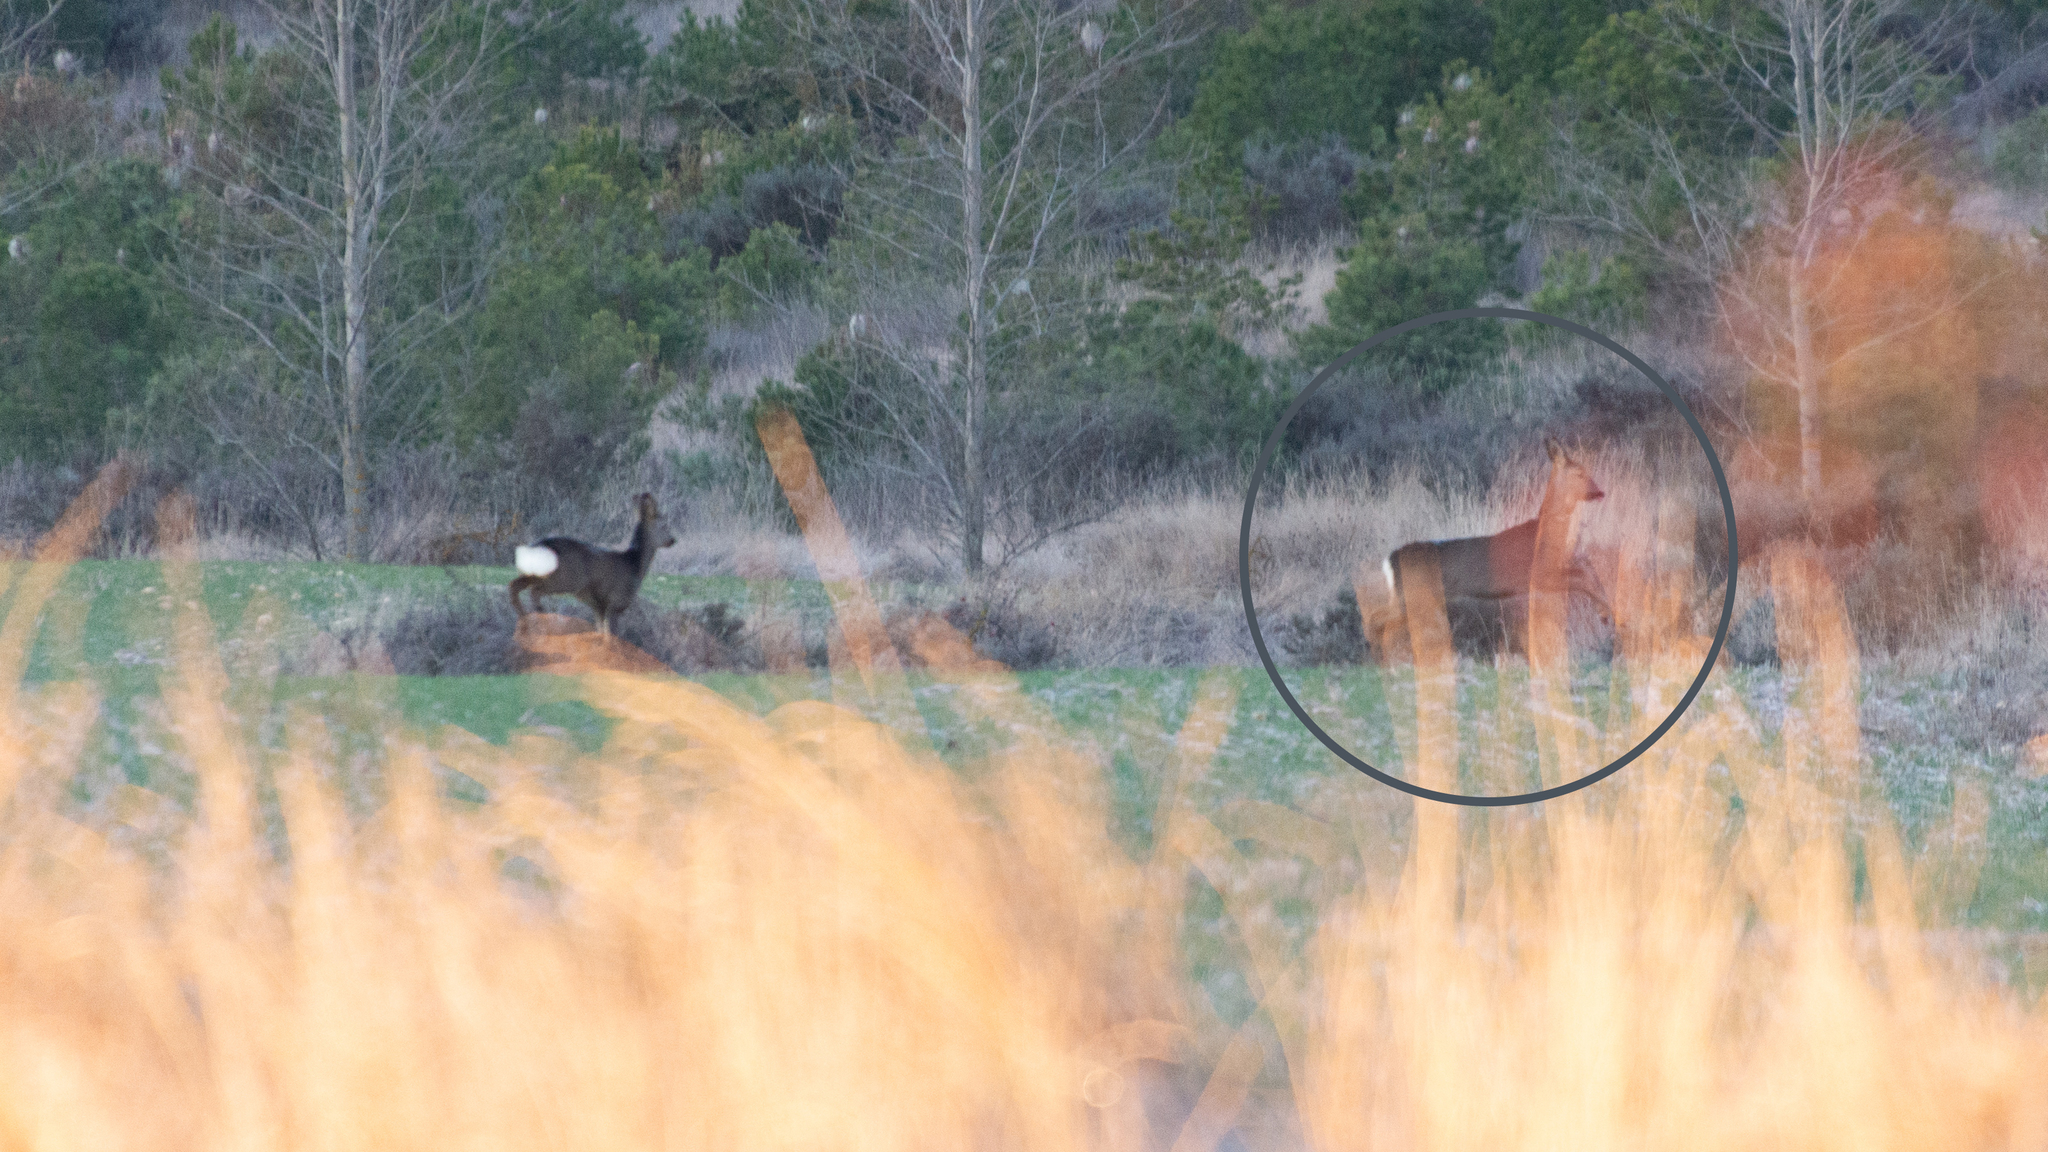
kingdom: Animalia
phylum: Chordata
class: Mammalia
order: Artiodactyla
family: Cervidae
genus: Capreolus
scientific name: Capreolus capreolus
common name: Western roe deer
